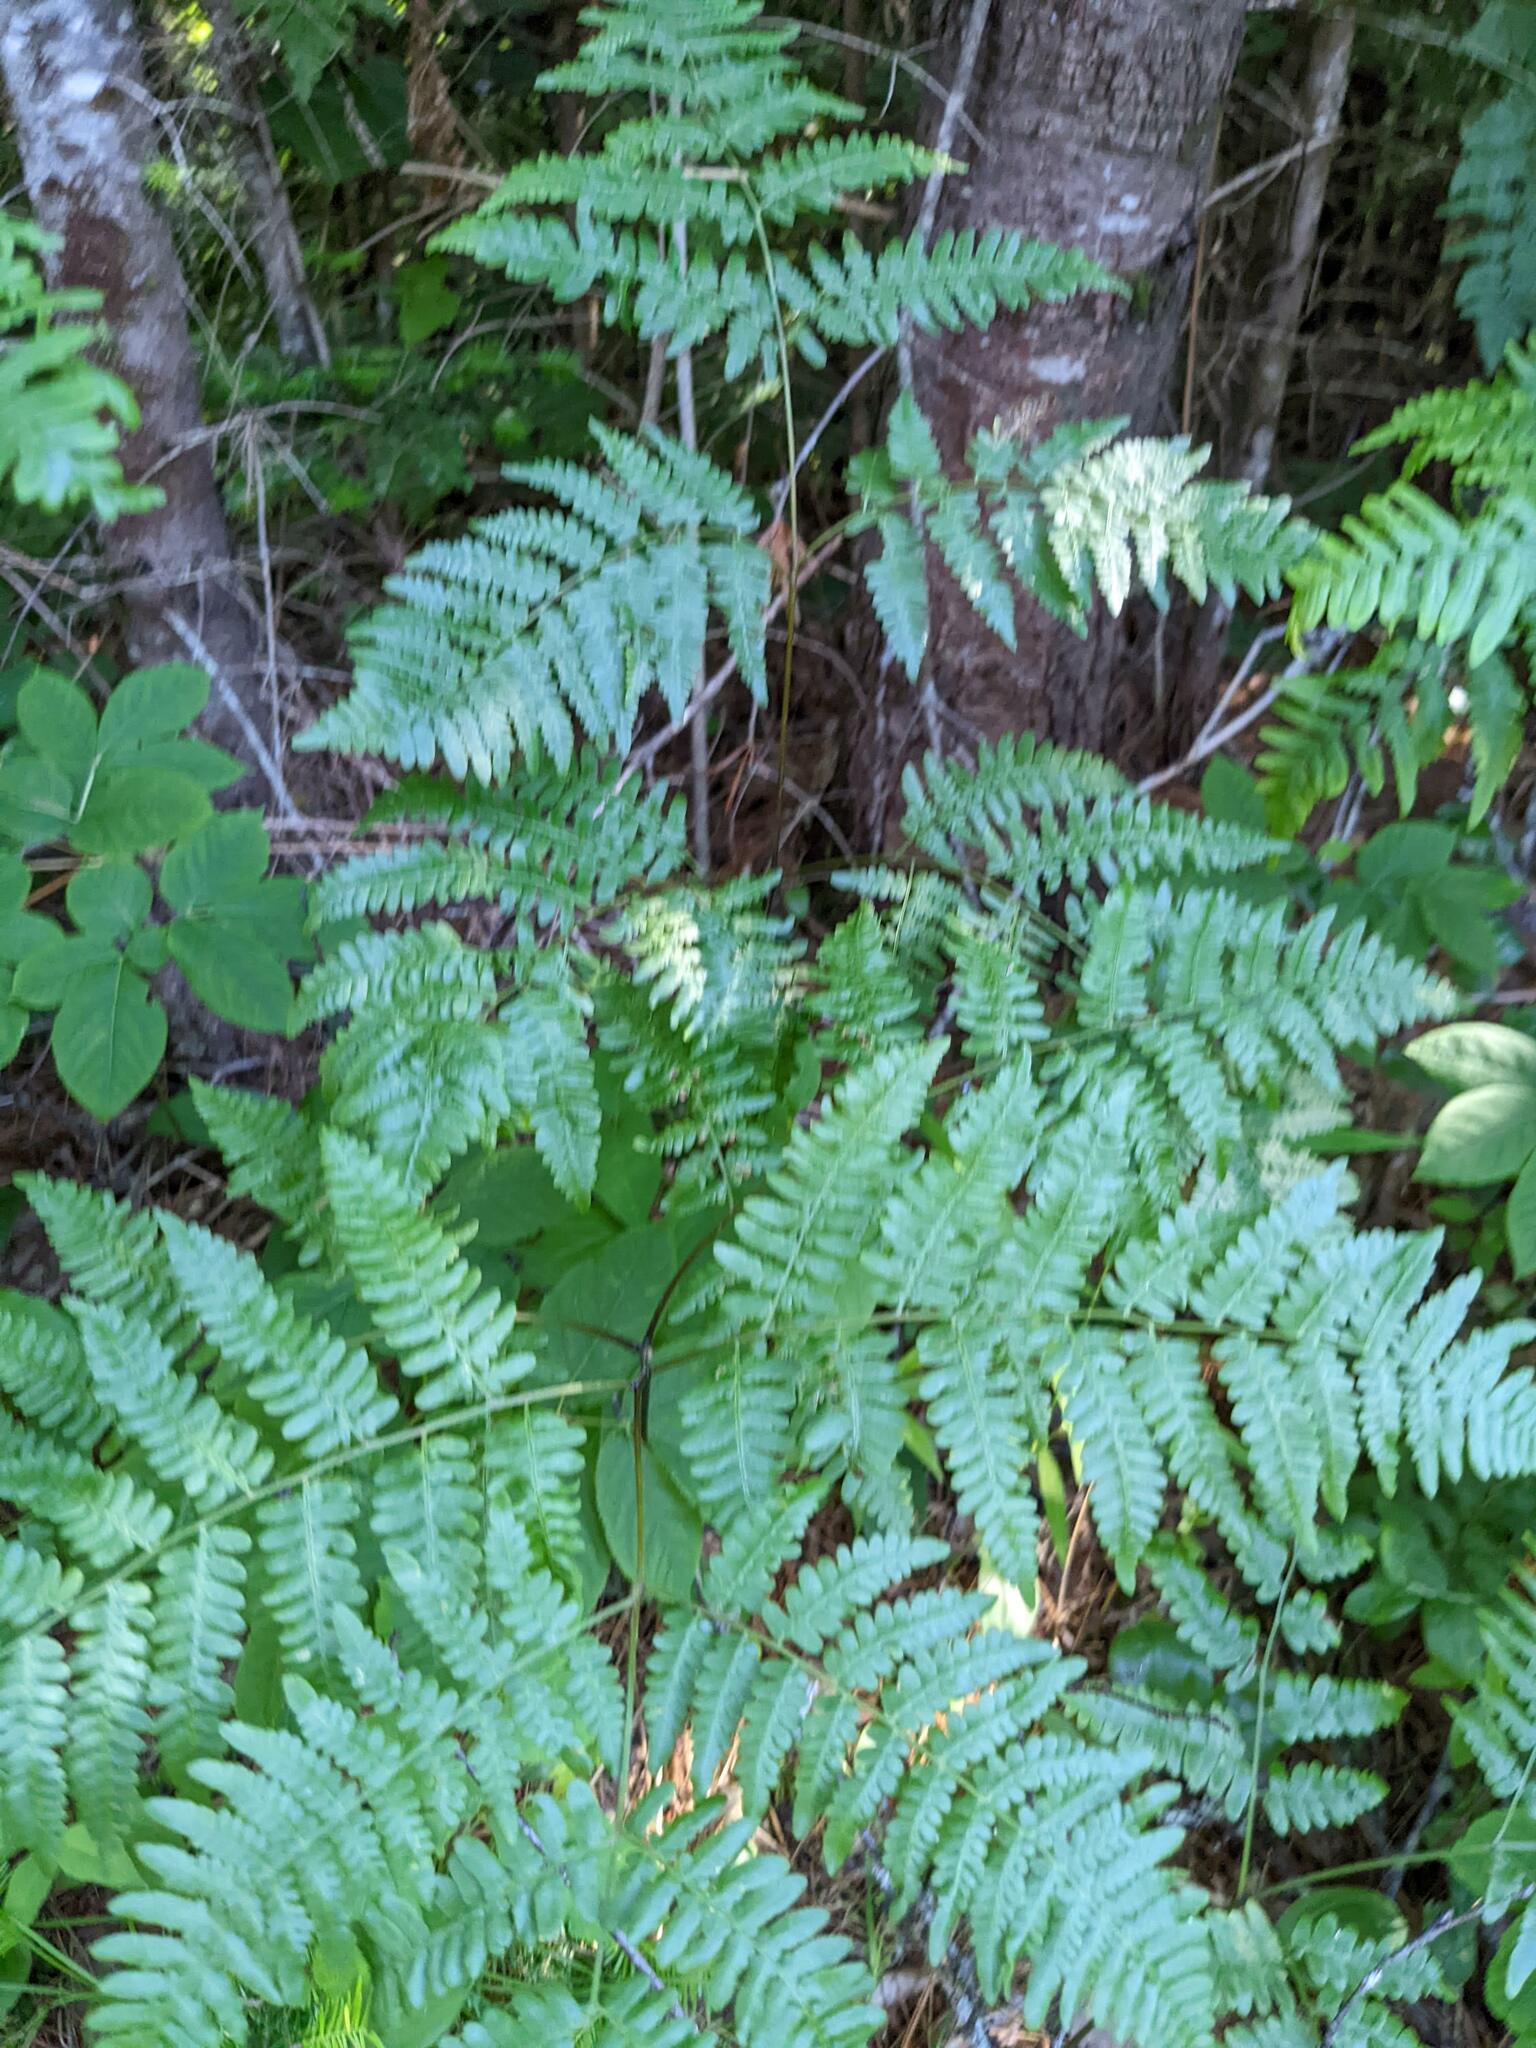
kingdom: Plantae
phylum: Tracheophyta
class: Polypodiopsida
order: Polypodiales
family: Dennstaedtiaceae
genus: Pteridium
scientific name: Pteridium aquilinum
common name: Bracken
